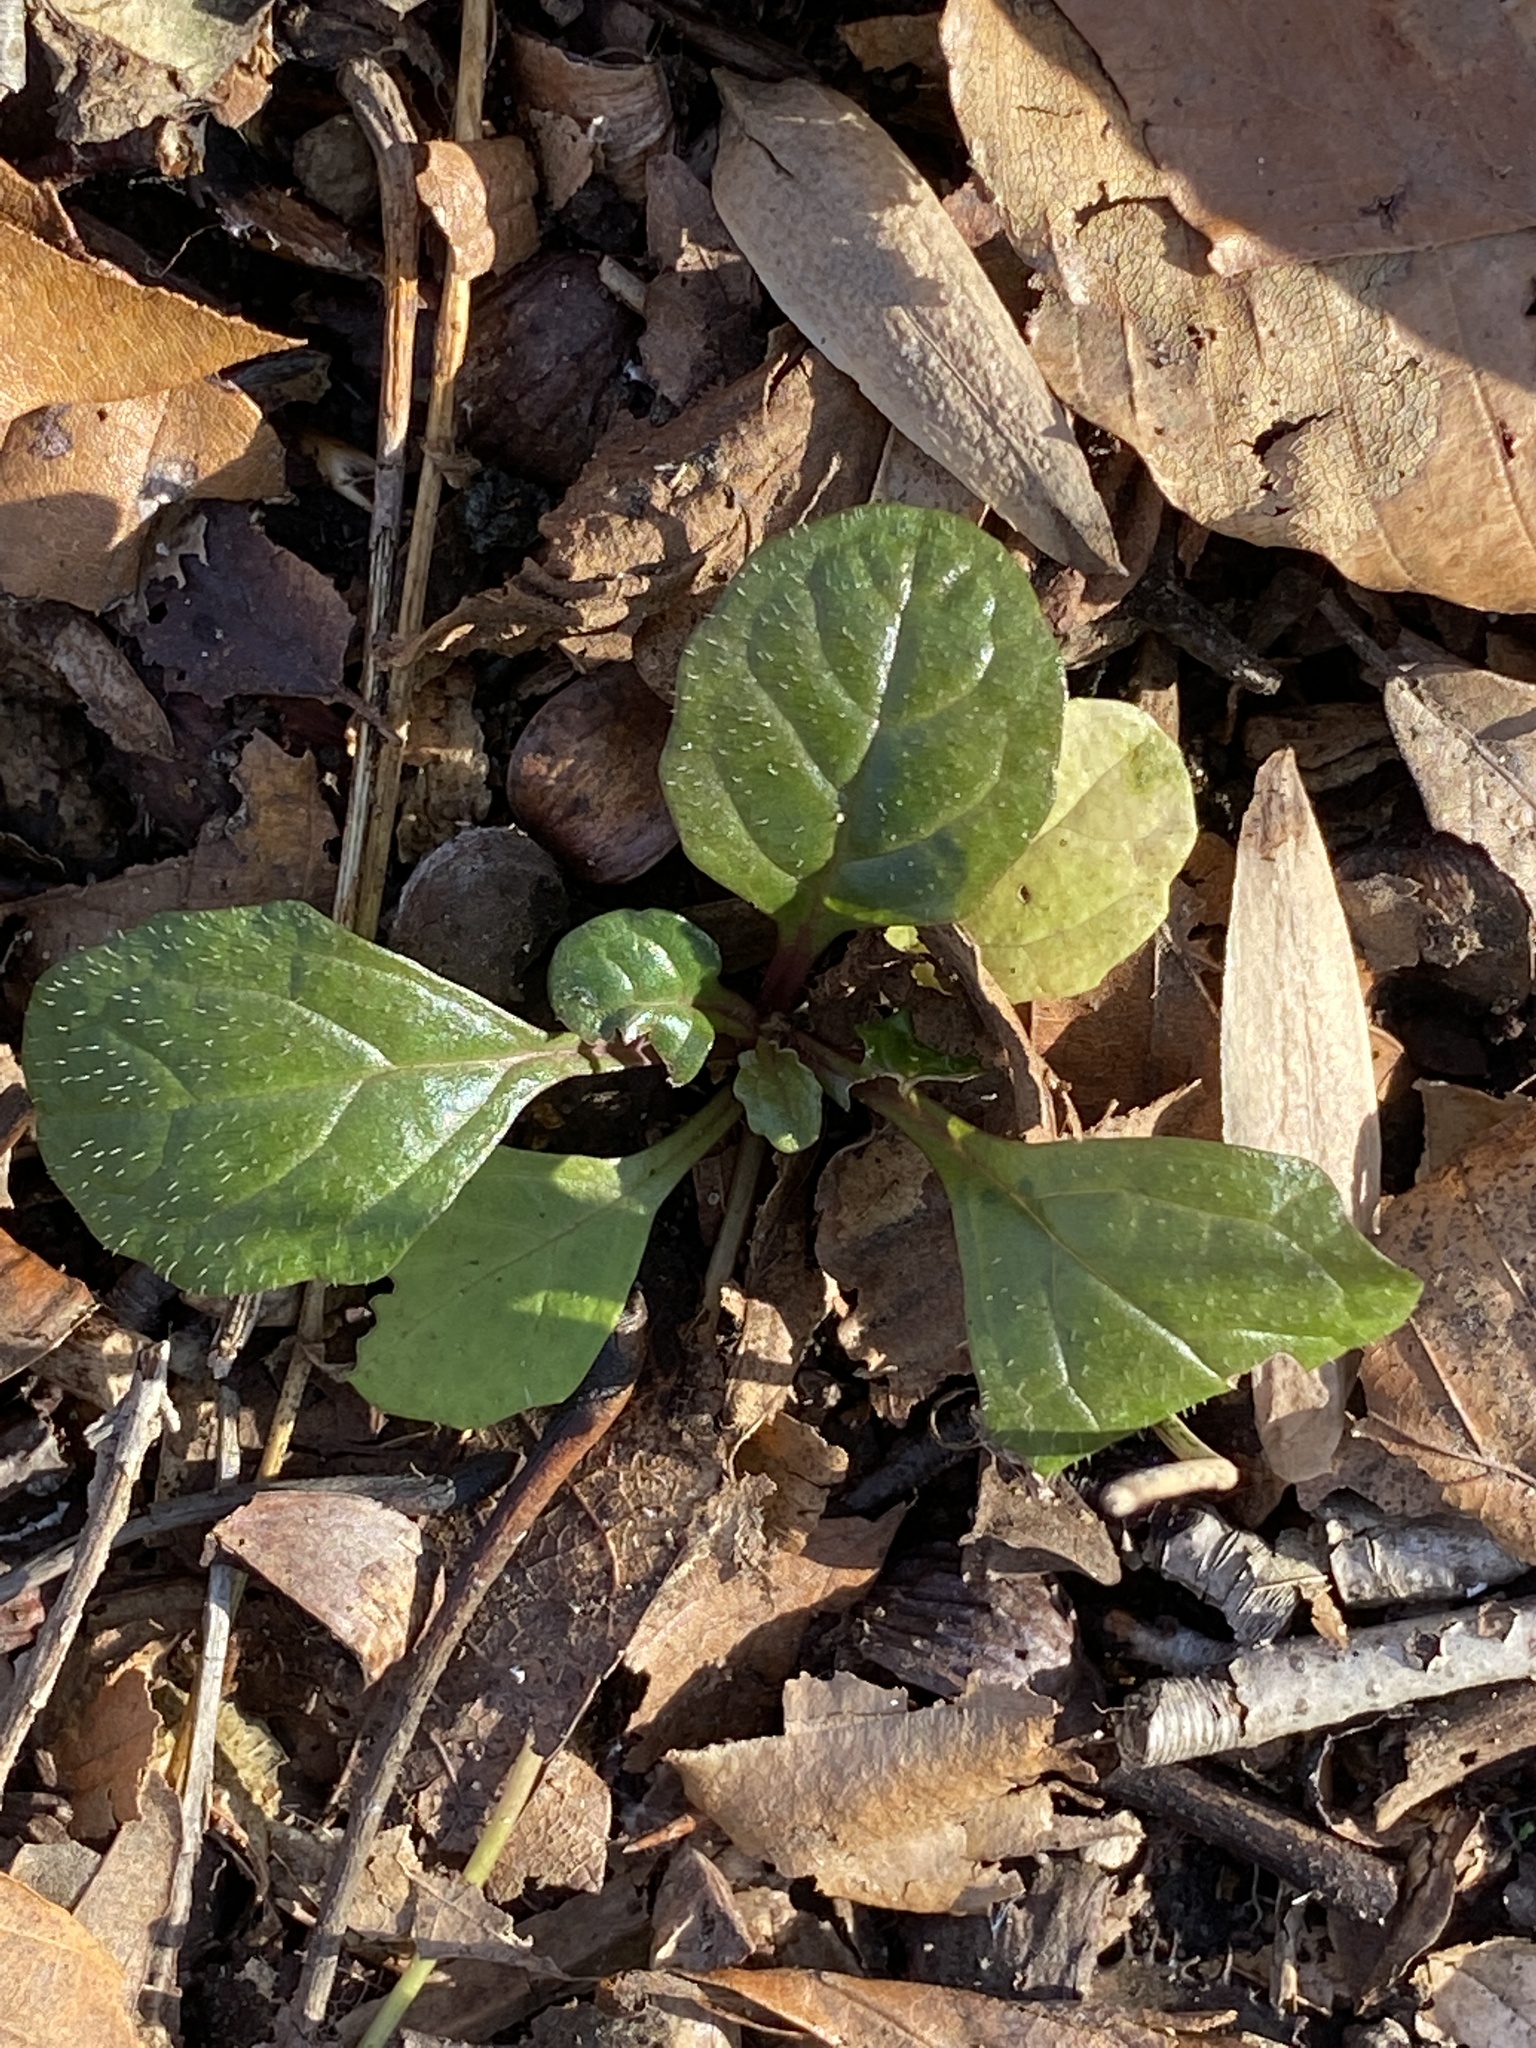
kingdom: Plantae
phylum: Tracheophyta
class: Magnoliopsida
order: Lamiales
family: Lamiaceae
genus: Ajuga
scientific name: Ajuga reptans
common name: Bugle
